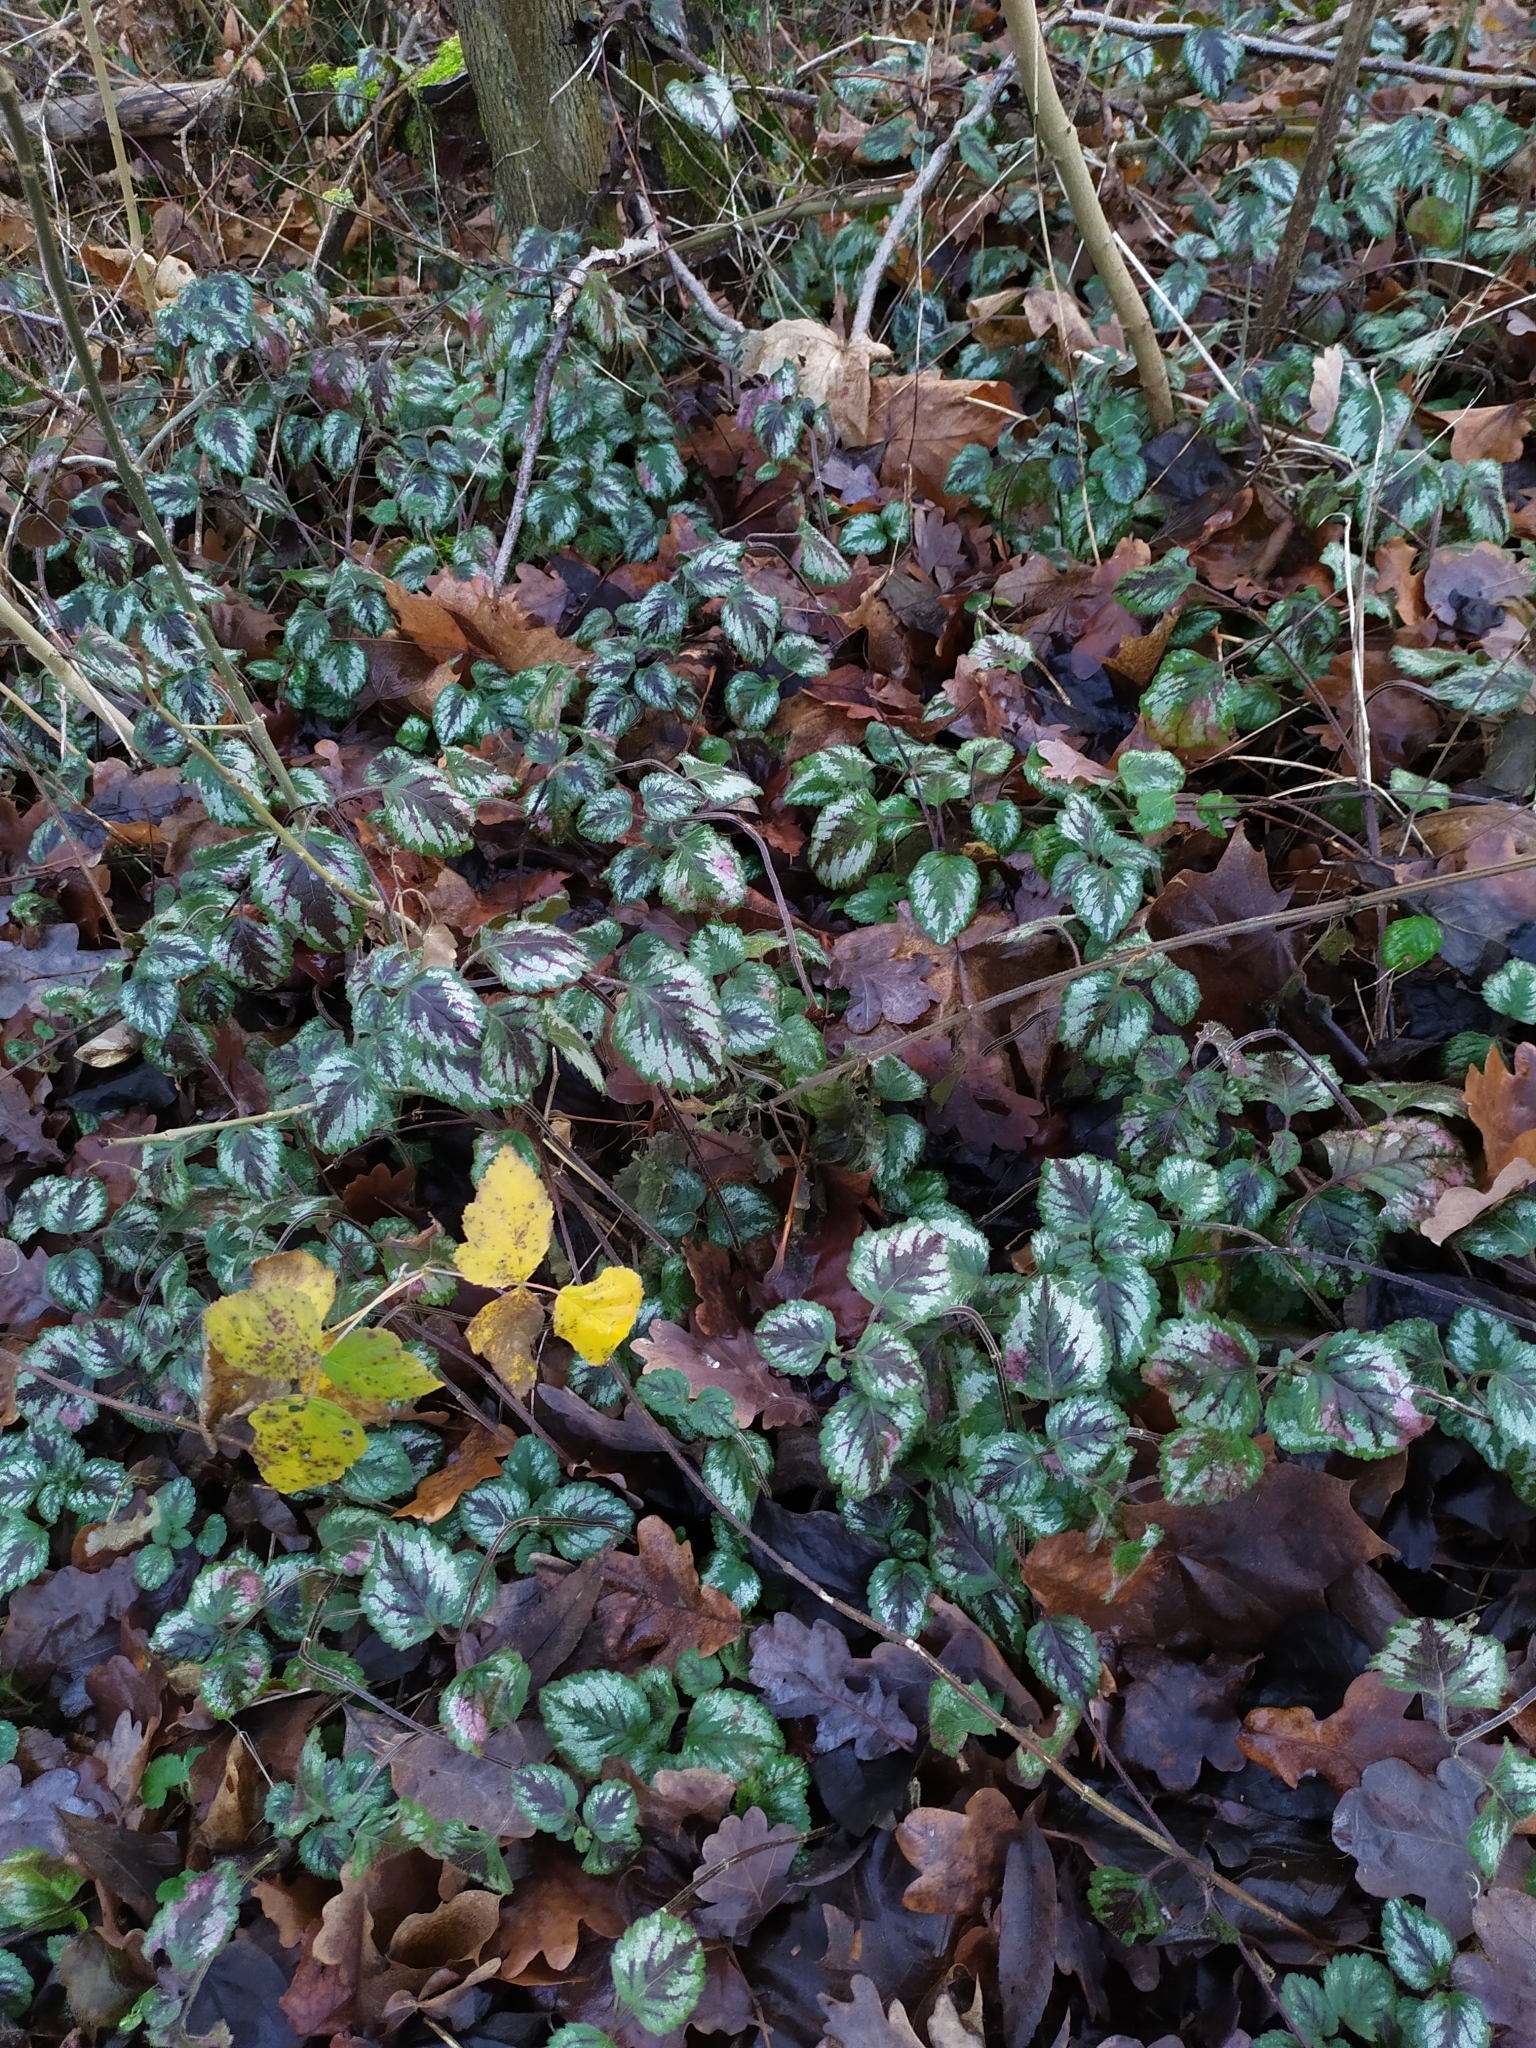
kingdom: Plantae
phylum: Tracheophyta
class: Magnoliopsida
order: Lamiales
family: Lamiaceae
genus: Lamium
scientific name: Lamium galeobdolon
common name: Yellow archangel
